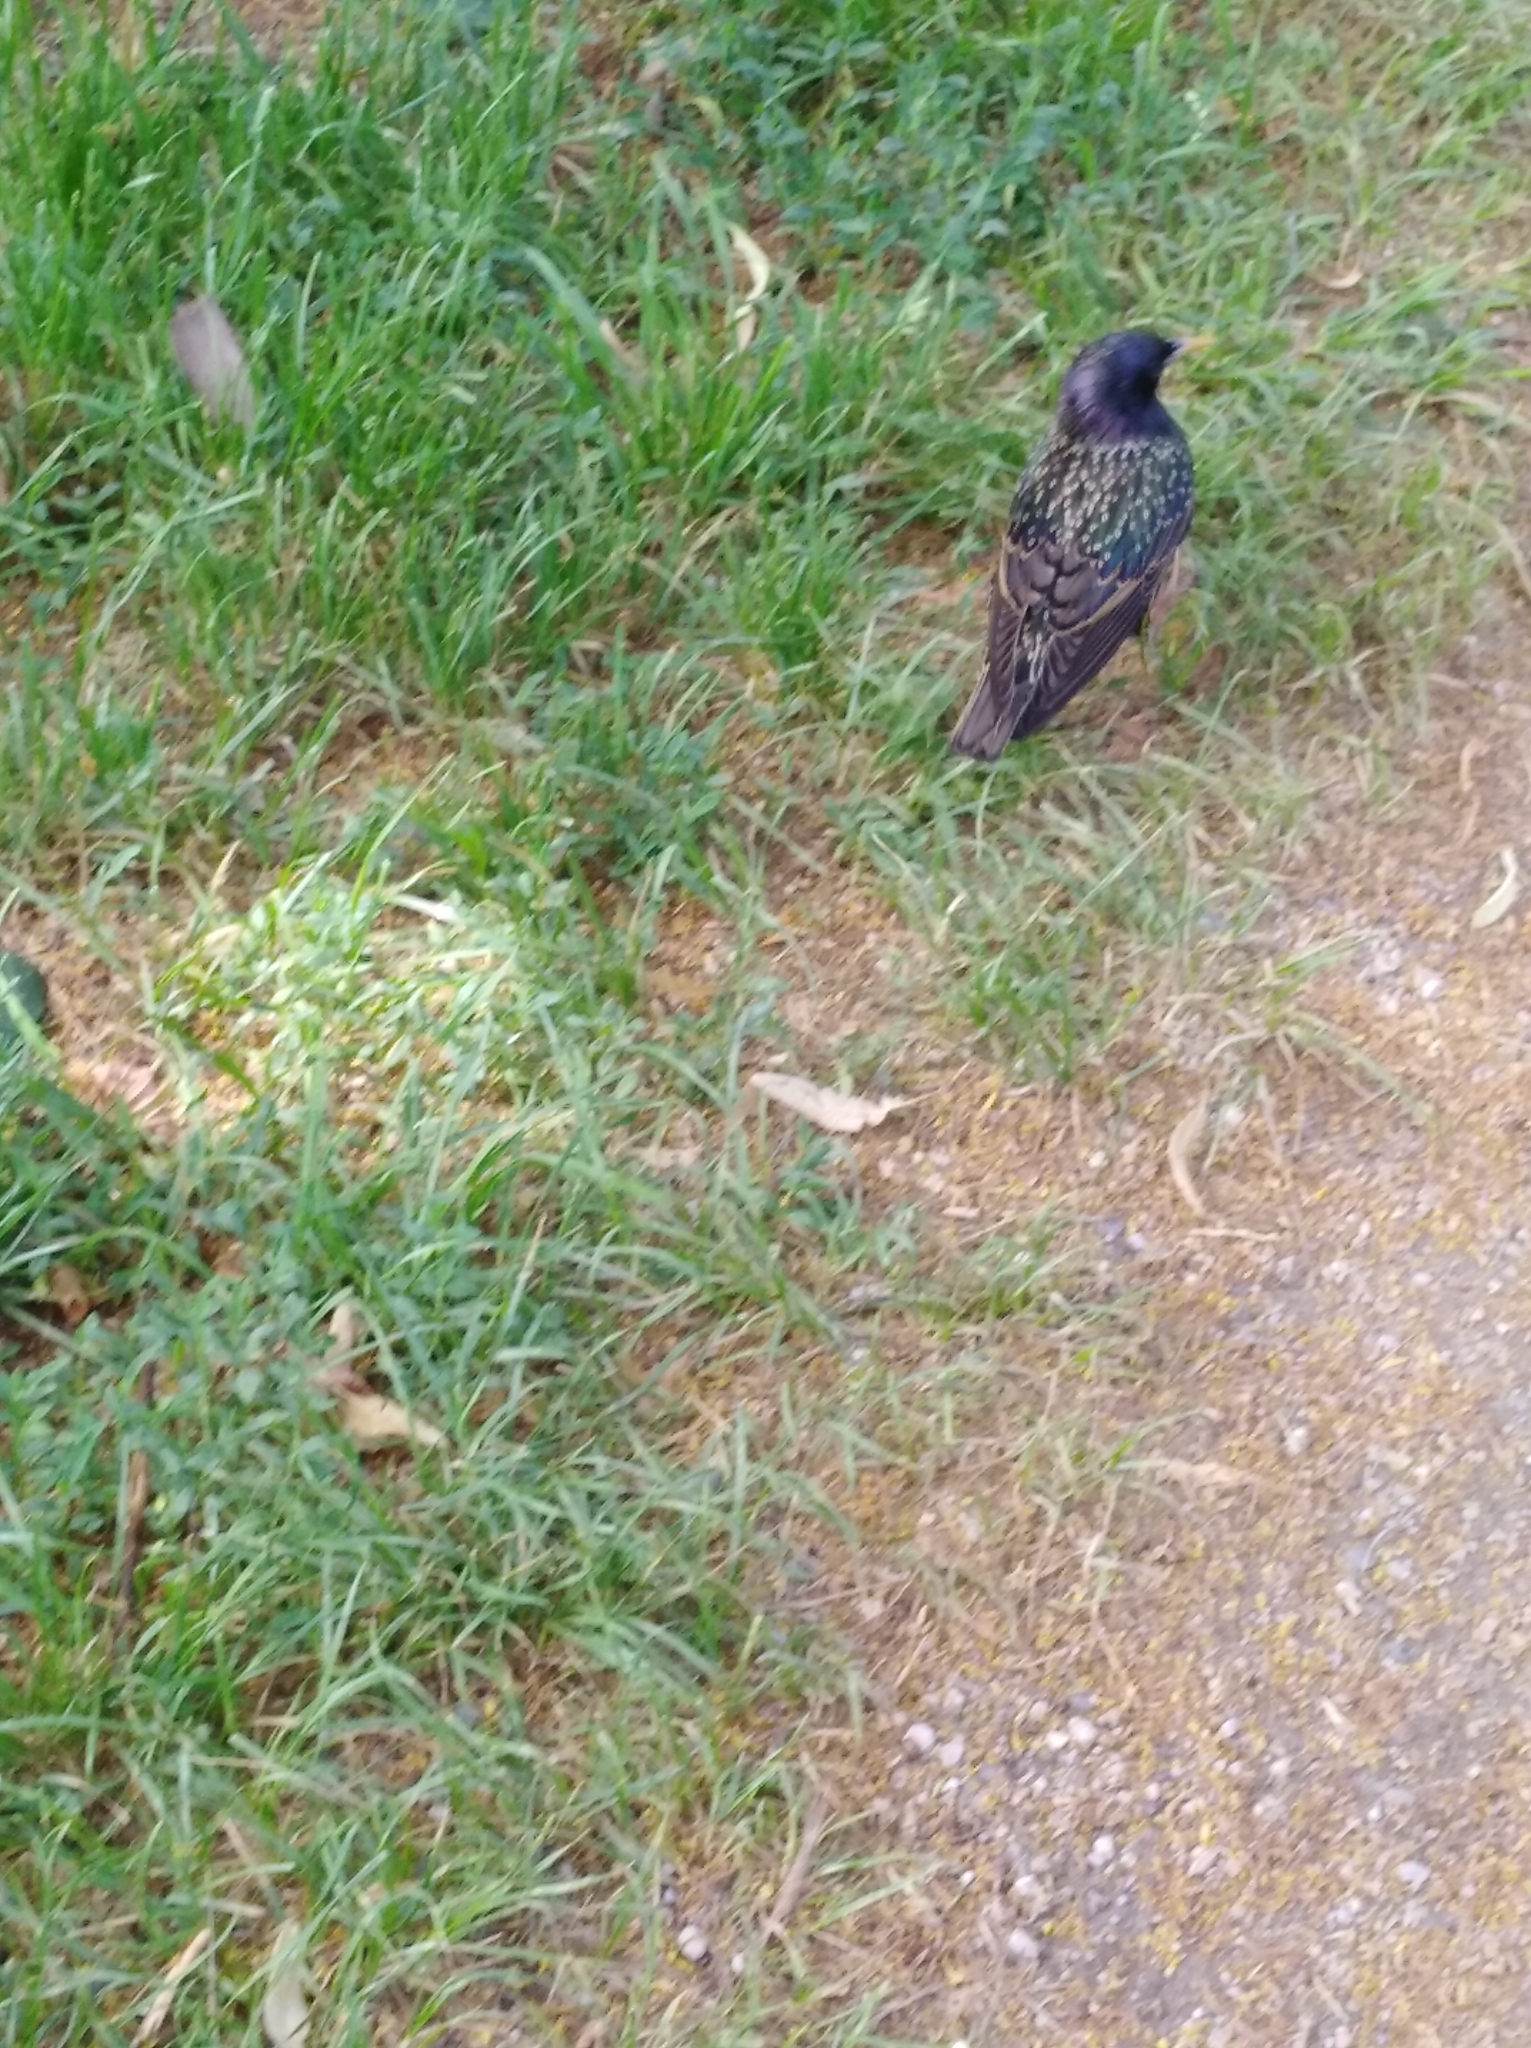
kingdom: Animalia
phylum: Chordata
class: Aves
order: Passeriformes
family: Sturnidae
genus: Sturnus
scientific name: Sturnus vulgaris
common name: Common starling
